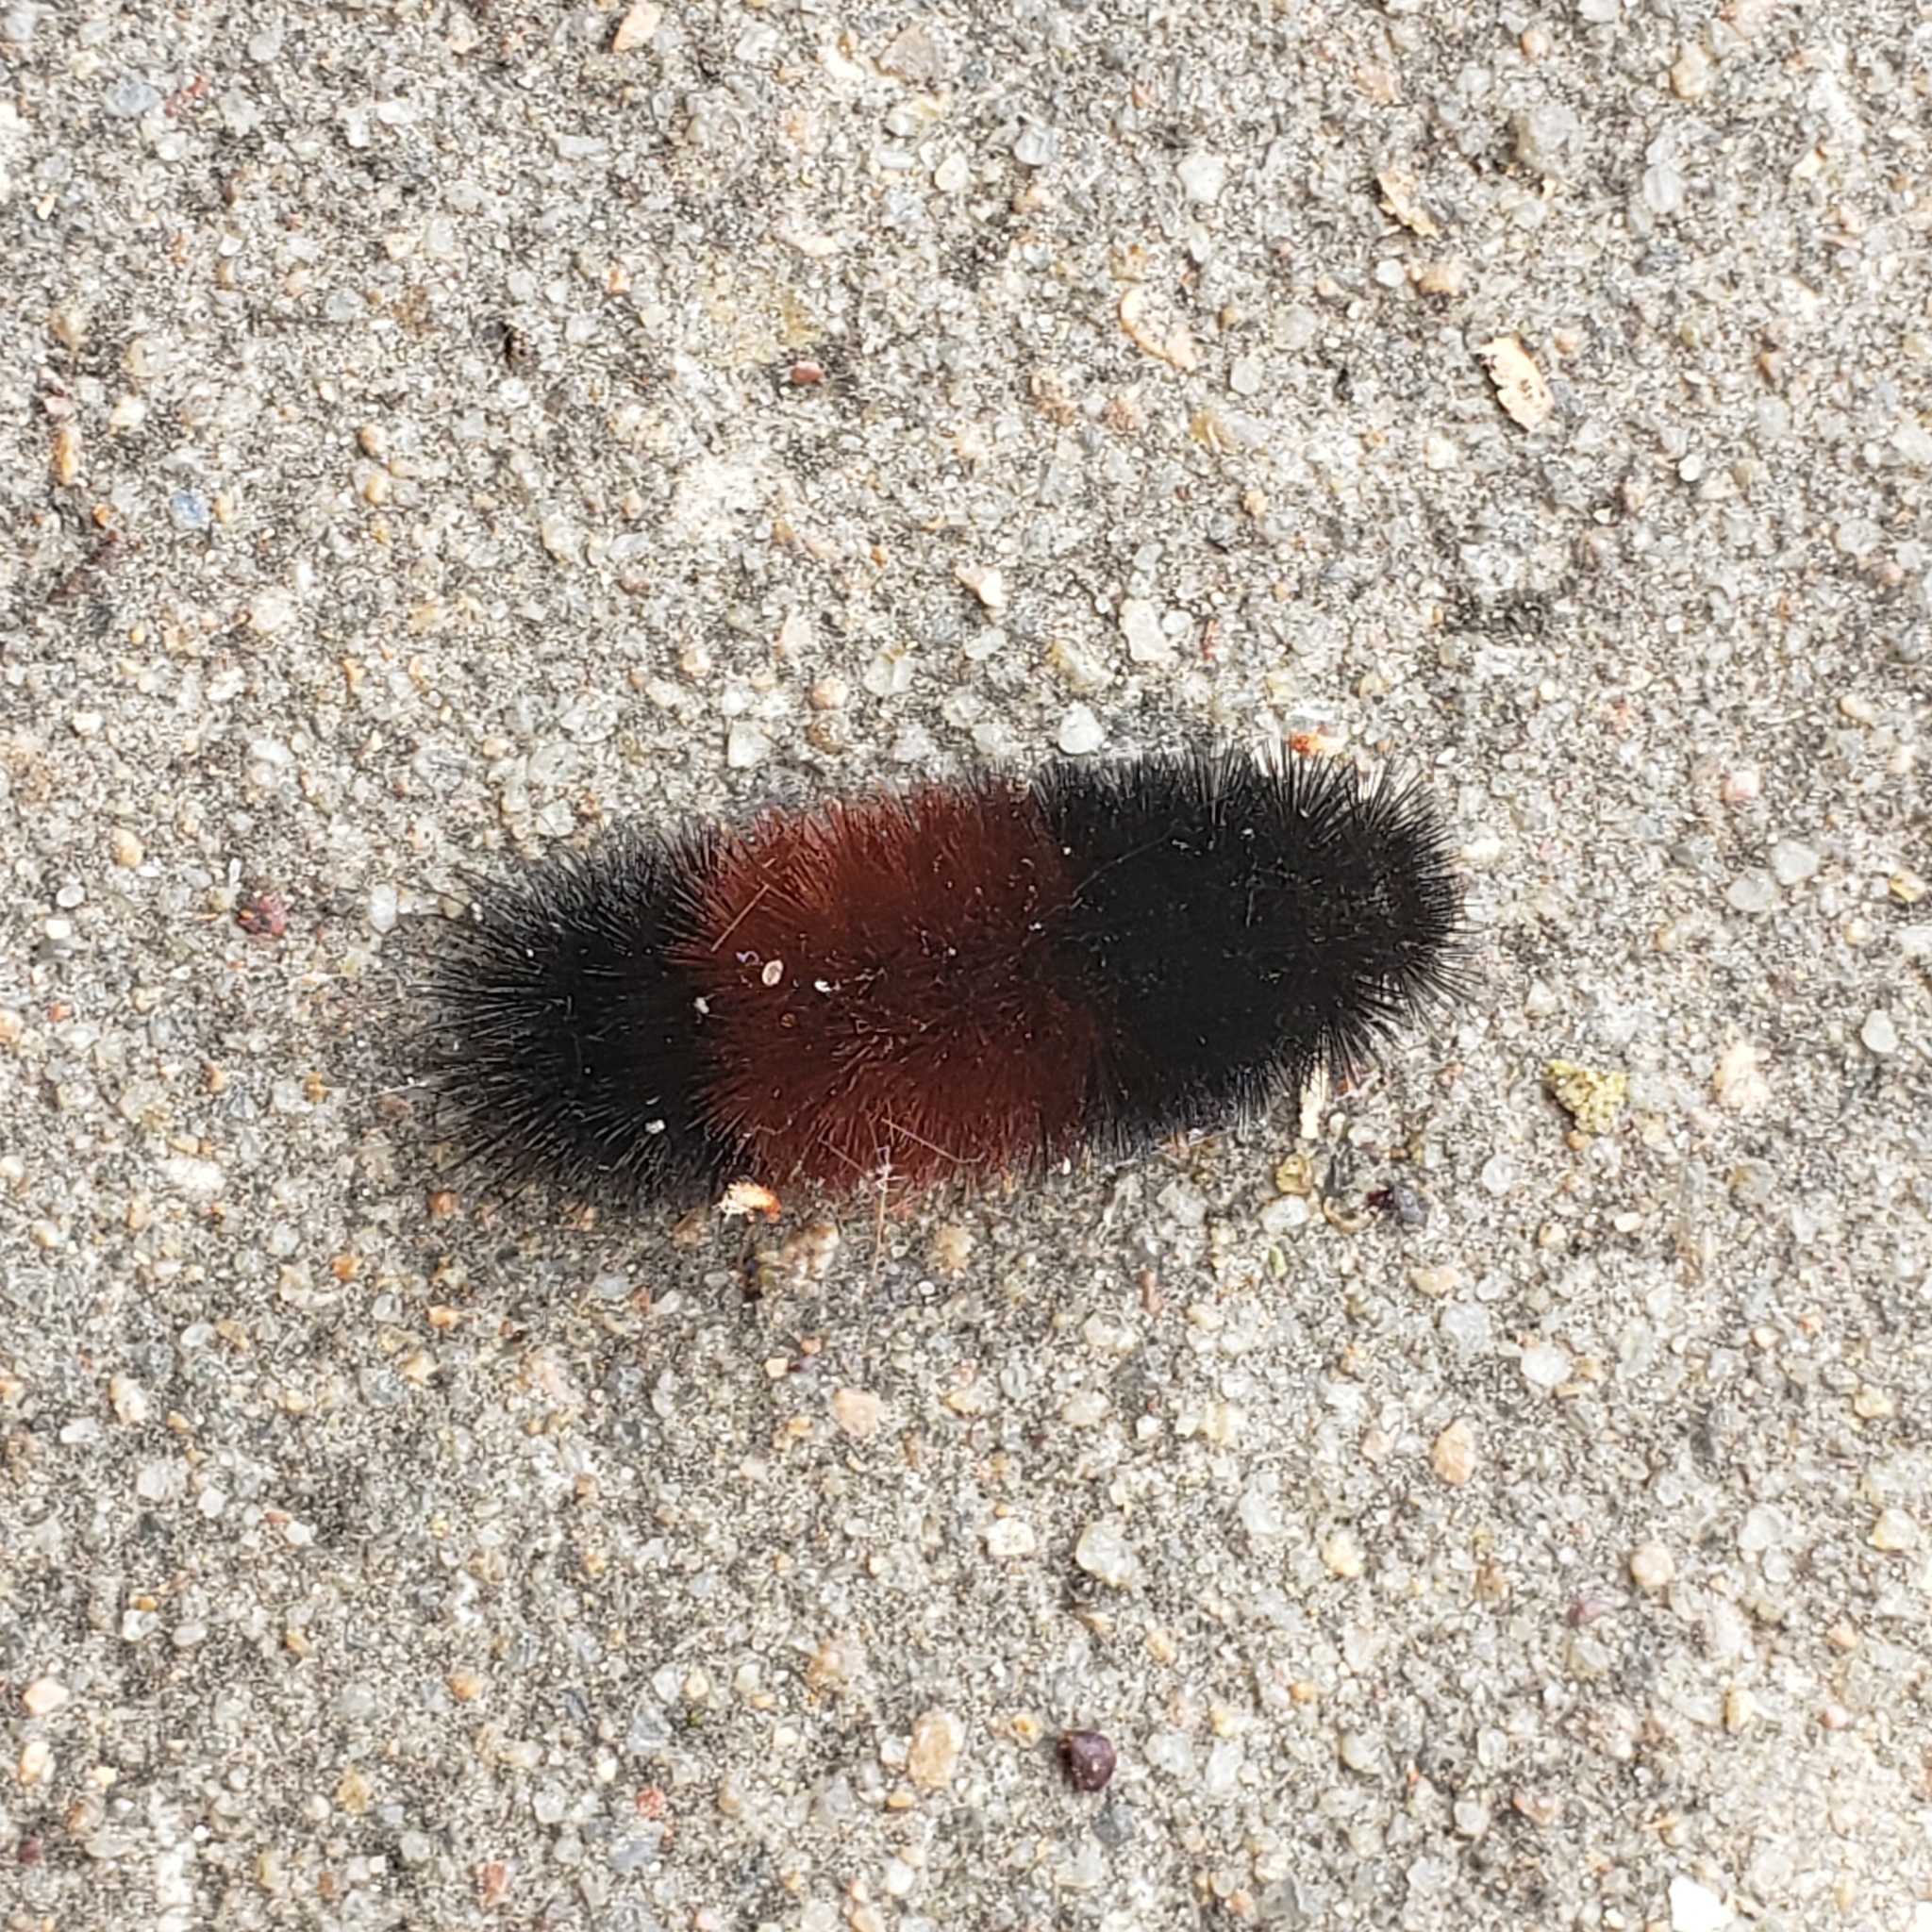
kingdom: Animalia
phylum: Arthropoda
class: Insecta
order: Lepidoptera
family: Erebidae
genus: Pyrrharctia
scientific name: Pyrrharctia isabella
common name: Isabella tiger moth
